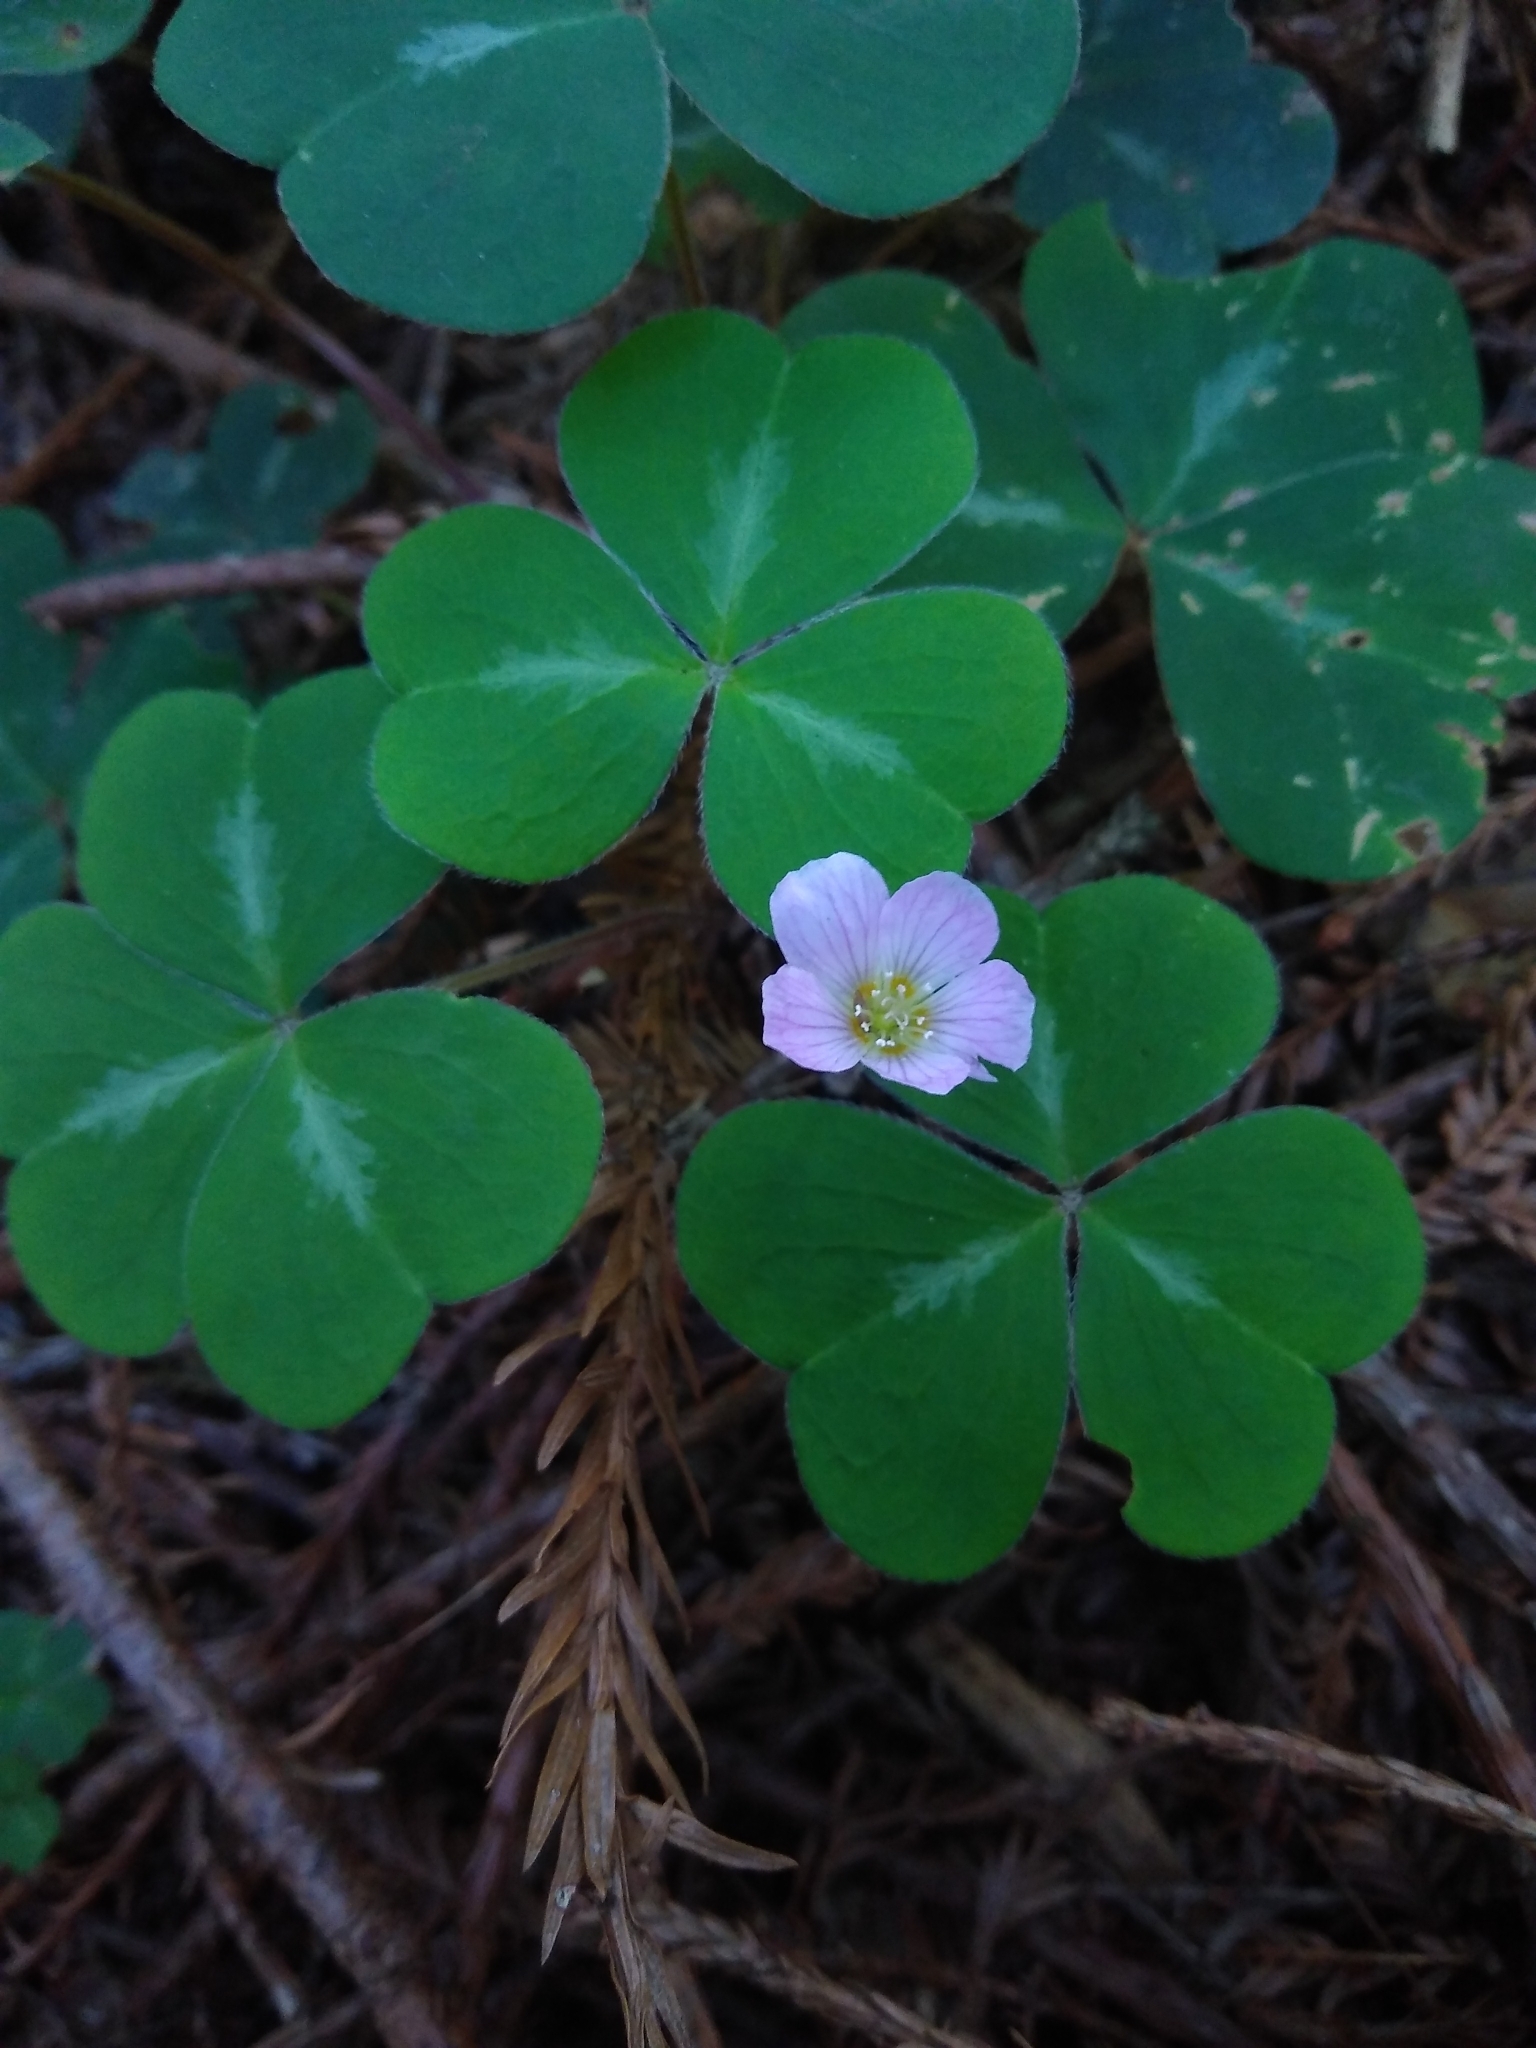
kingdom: Plantae
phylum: Tracheophyta
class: Magnoliopsida
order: Oxalidales
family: Oxalidaceae
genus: Oxalis
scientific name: Oxalis oregana
